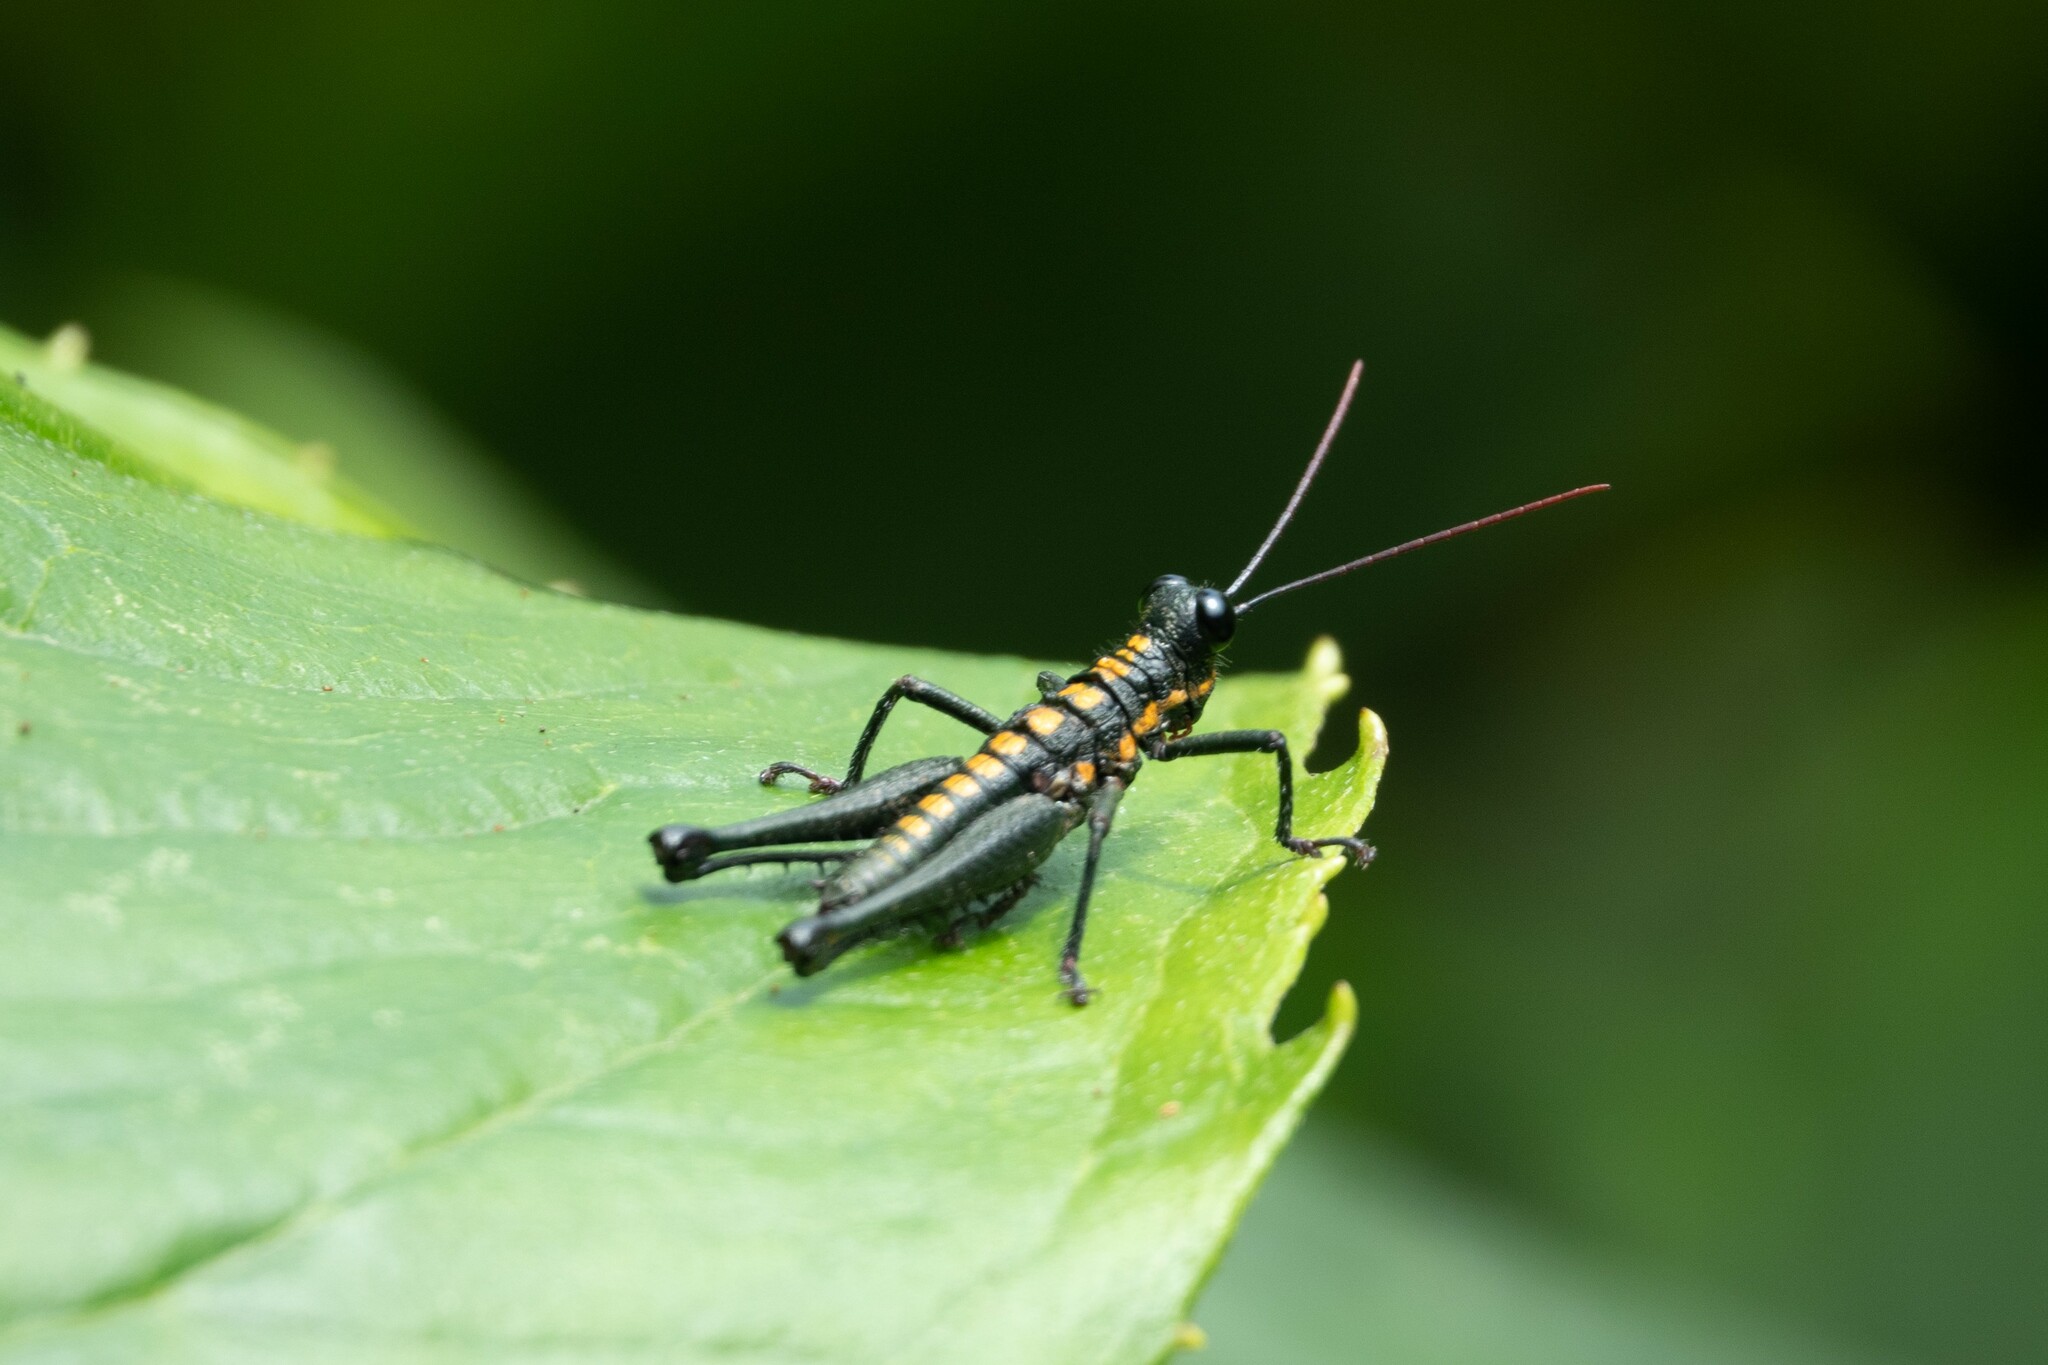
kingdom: Animalia
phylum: Arthropoda
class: Insecta
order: Orthoptera
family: Acrididae
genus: Trichopaon
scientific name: Trichopaon tatei
